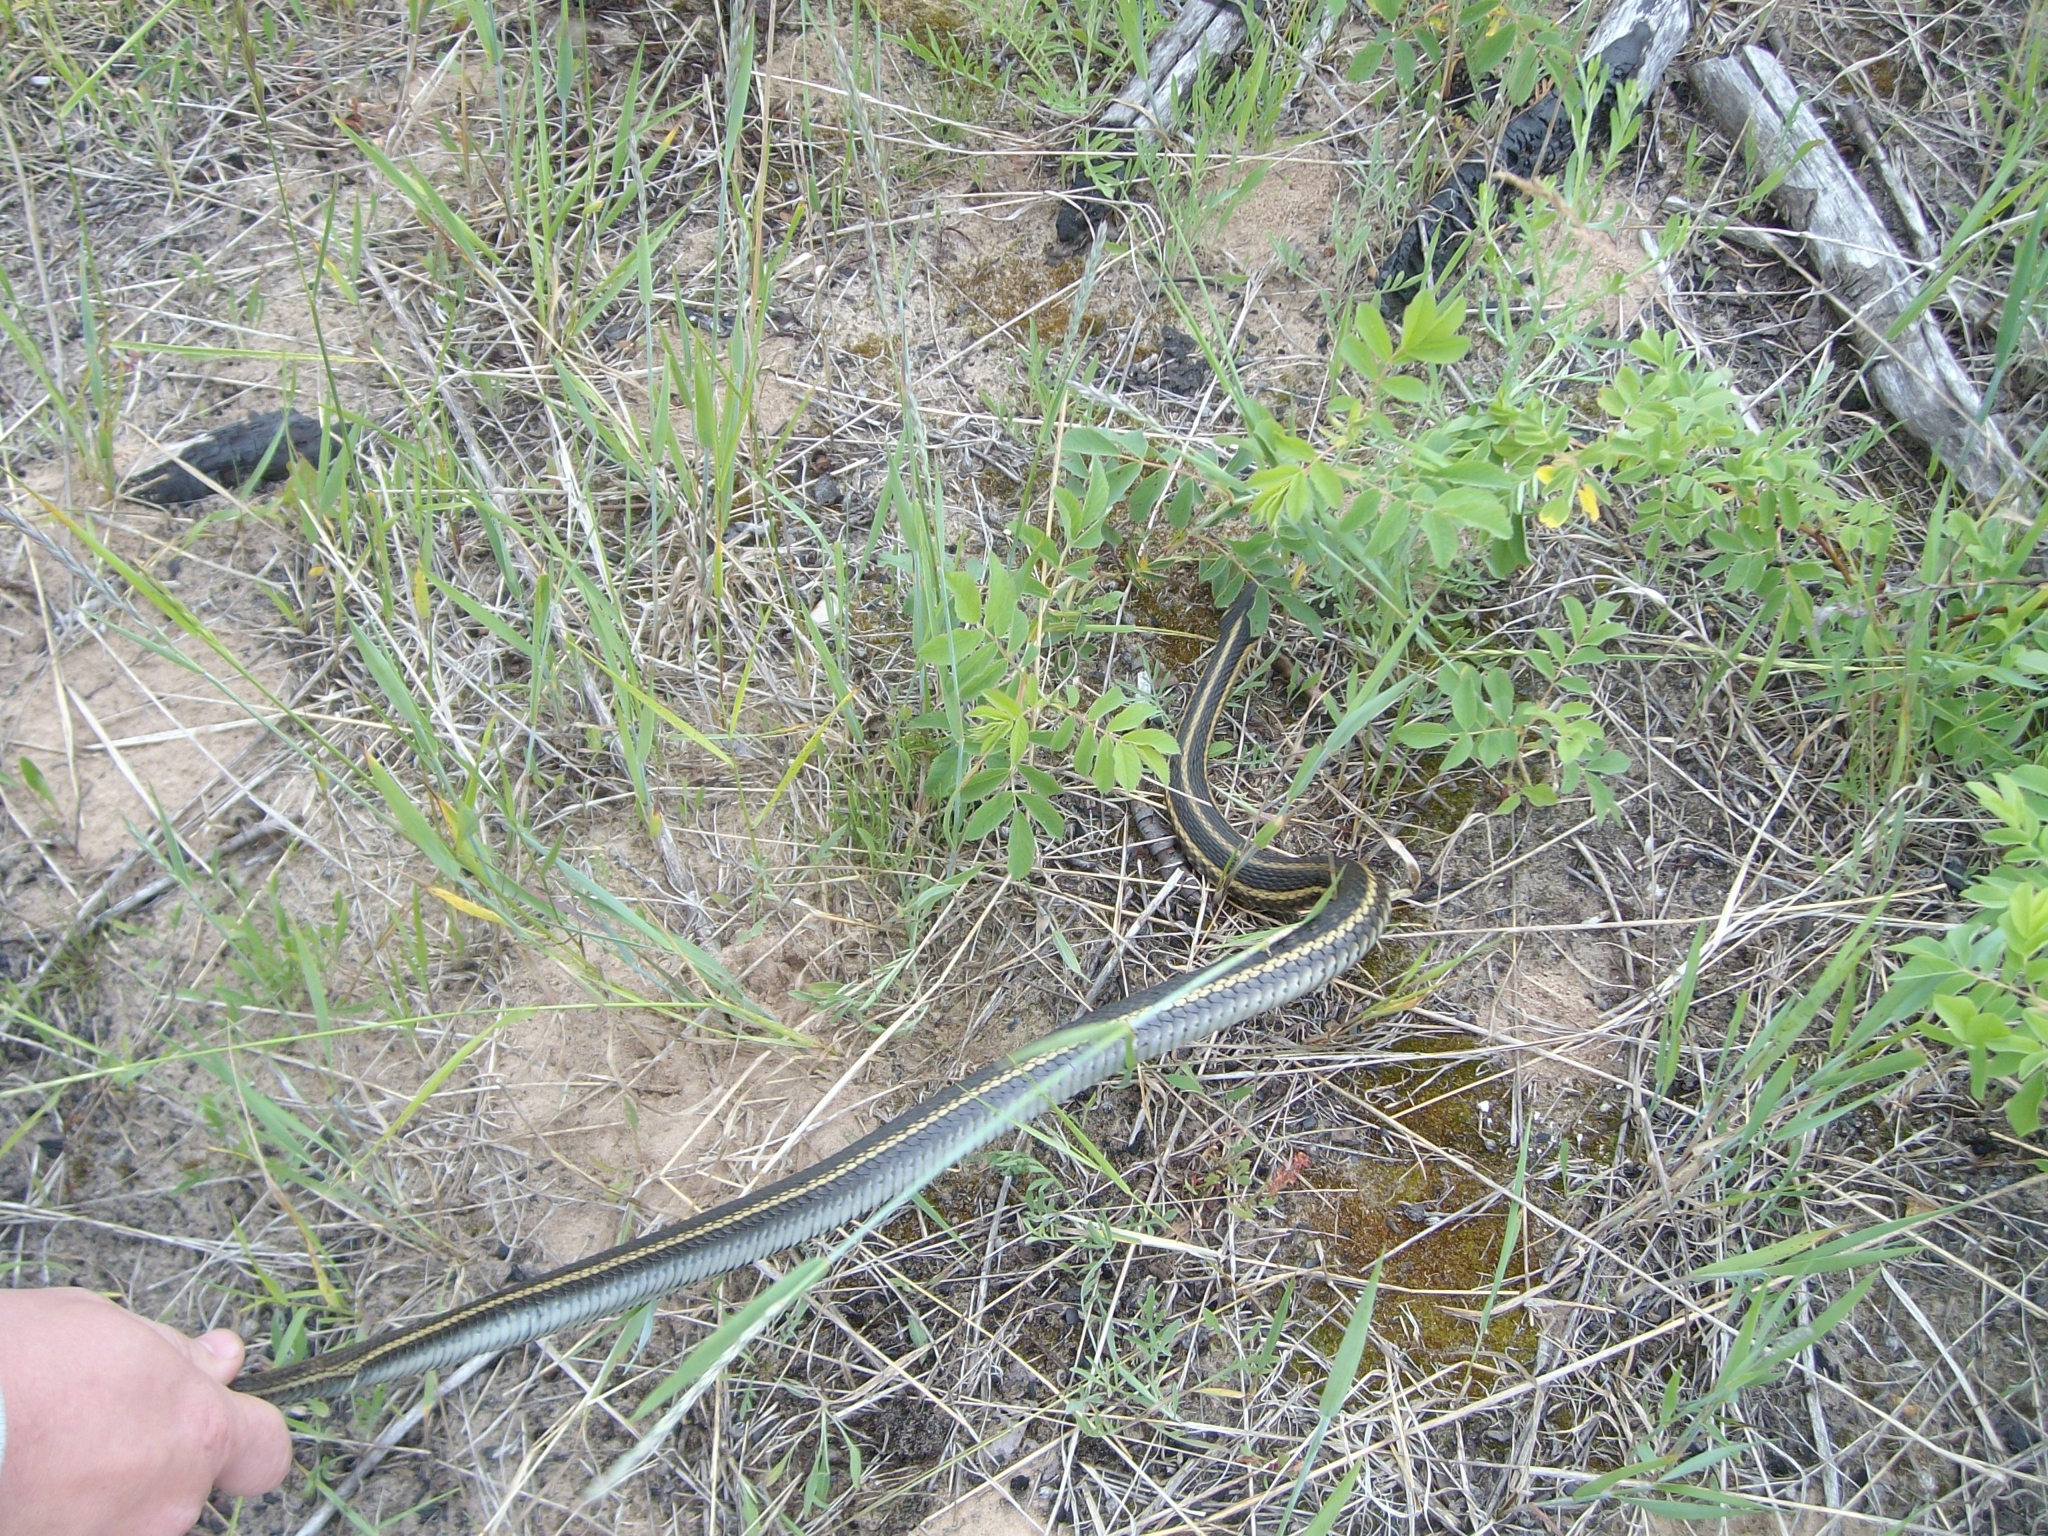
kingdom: Animalia
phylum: Chordata
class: Squamata
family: Colubridae
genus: Thamnophis
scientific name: Thamnophis sirtalis
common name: Common garter snake
